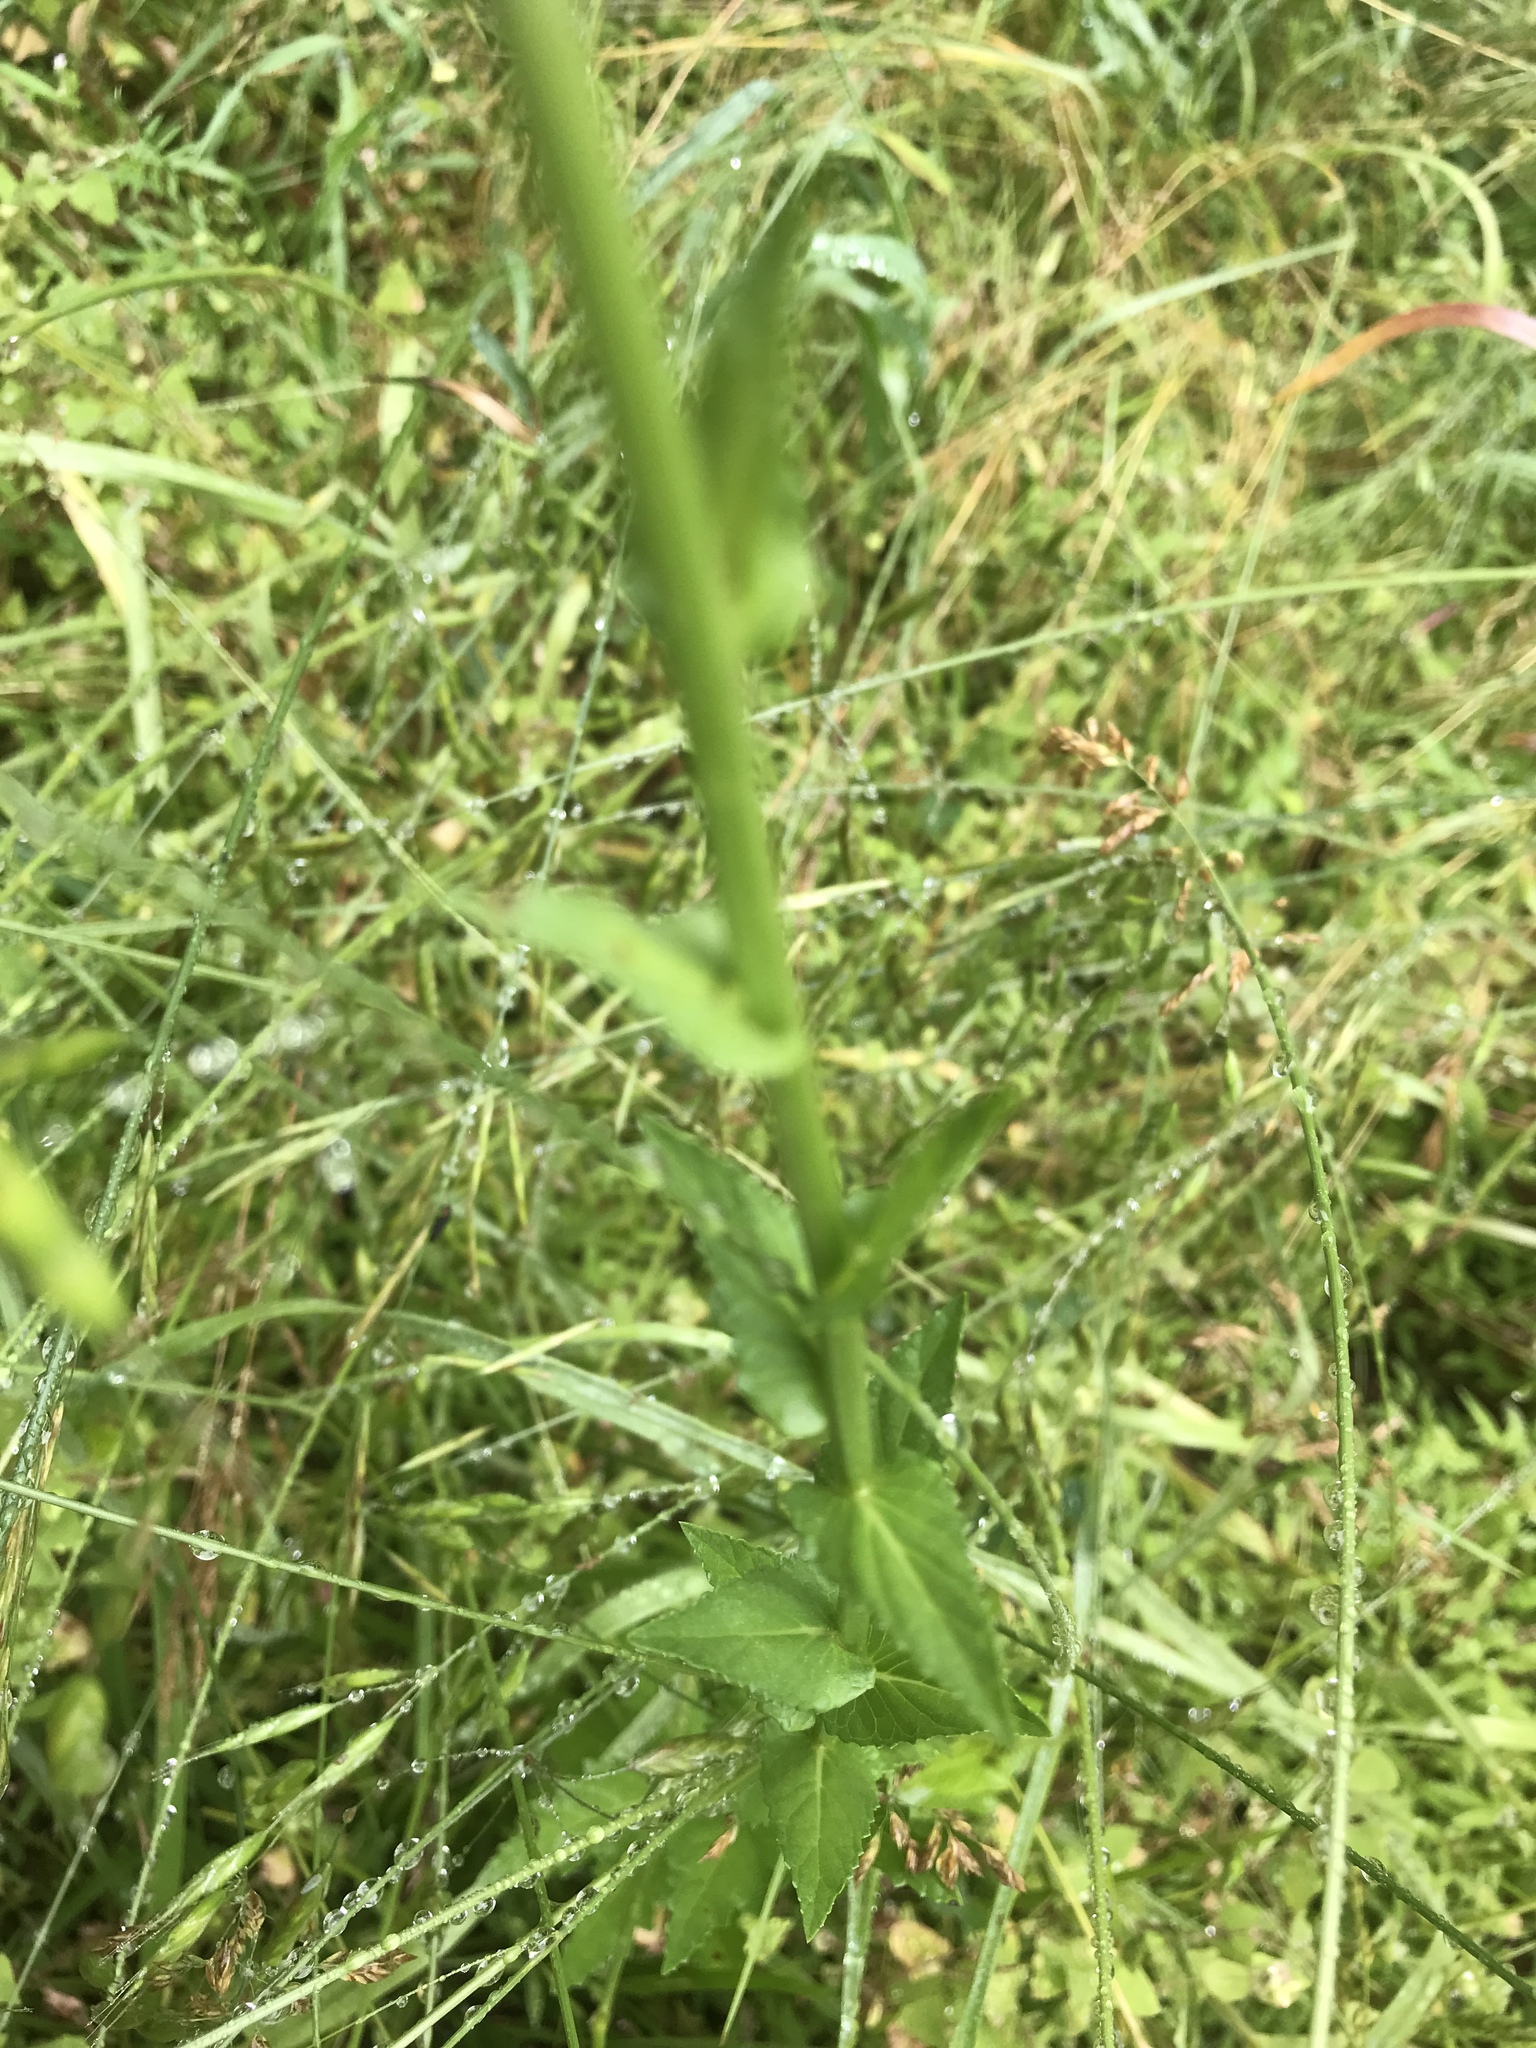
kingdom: Plantae
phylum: Tracheophyta
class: Magnoliopsida
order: Lamiales
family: Scrophulariaceae
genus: Verbascum
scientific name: Verbascum blattaria
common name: Moth mullein
